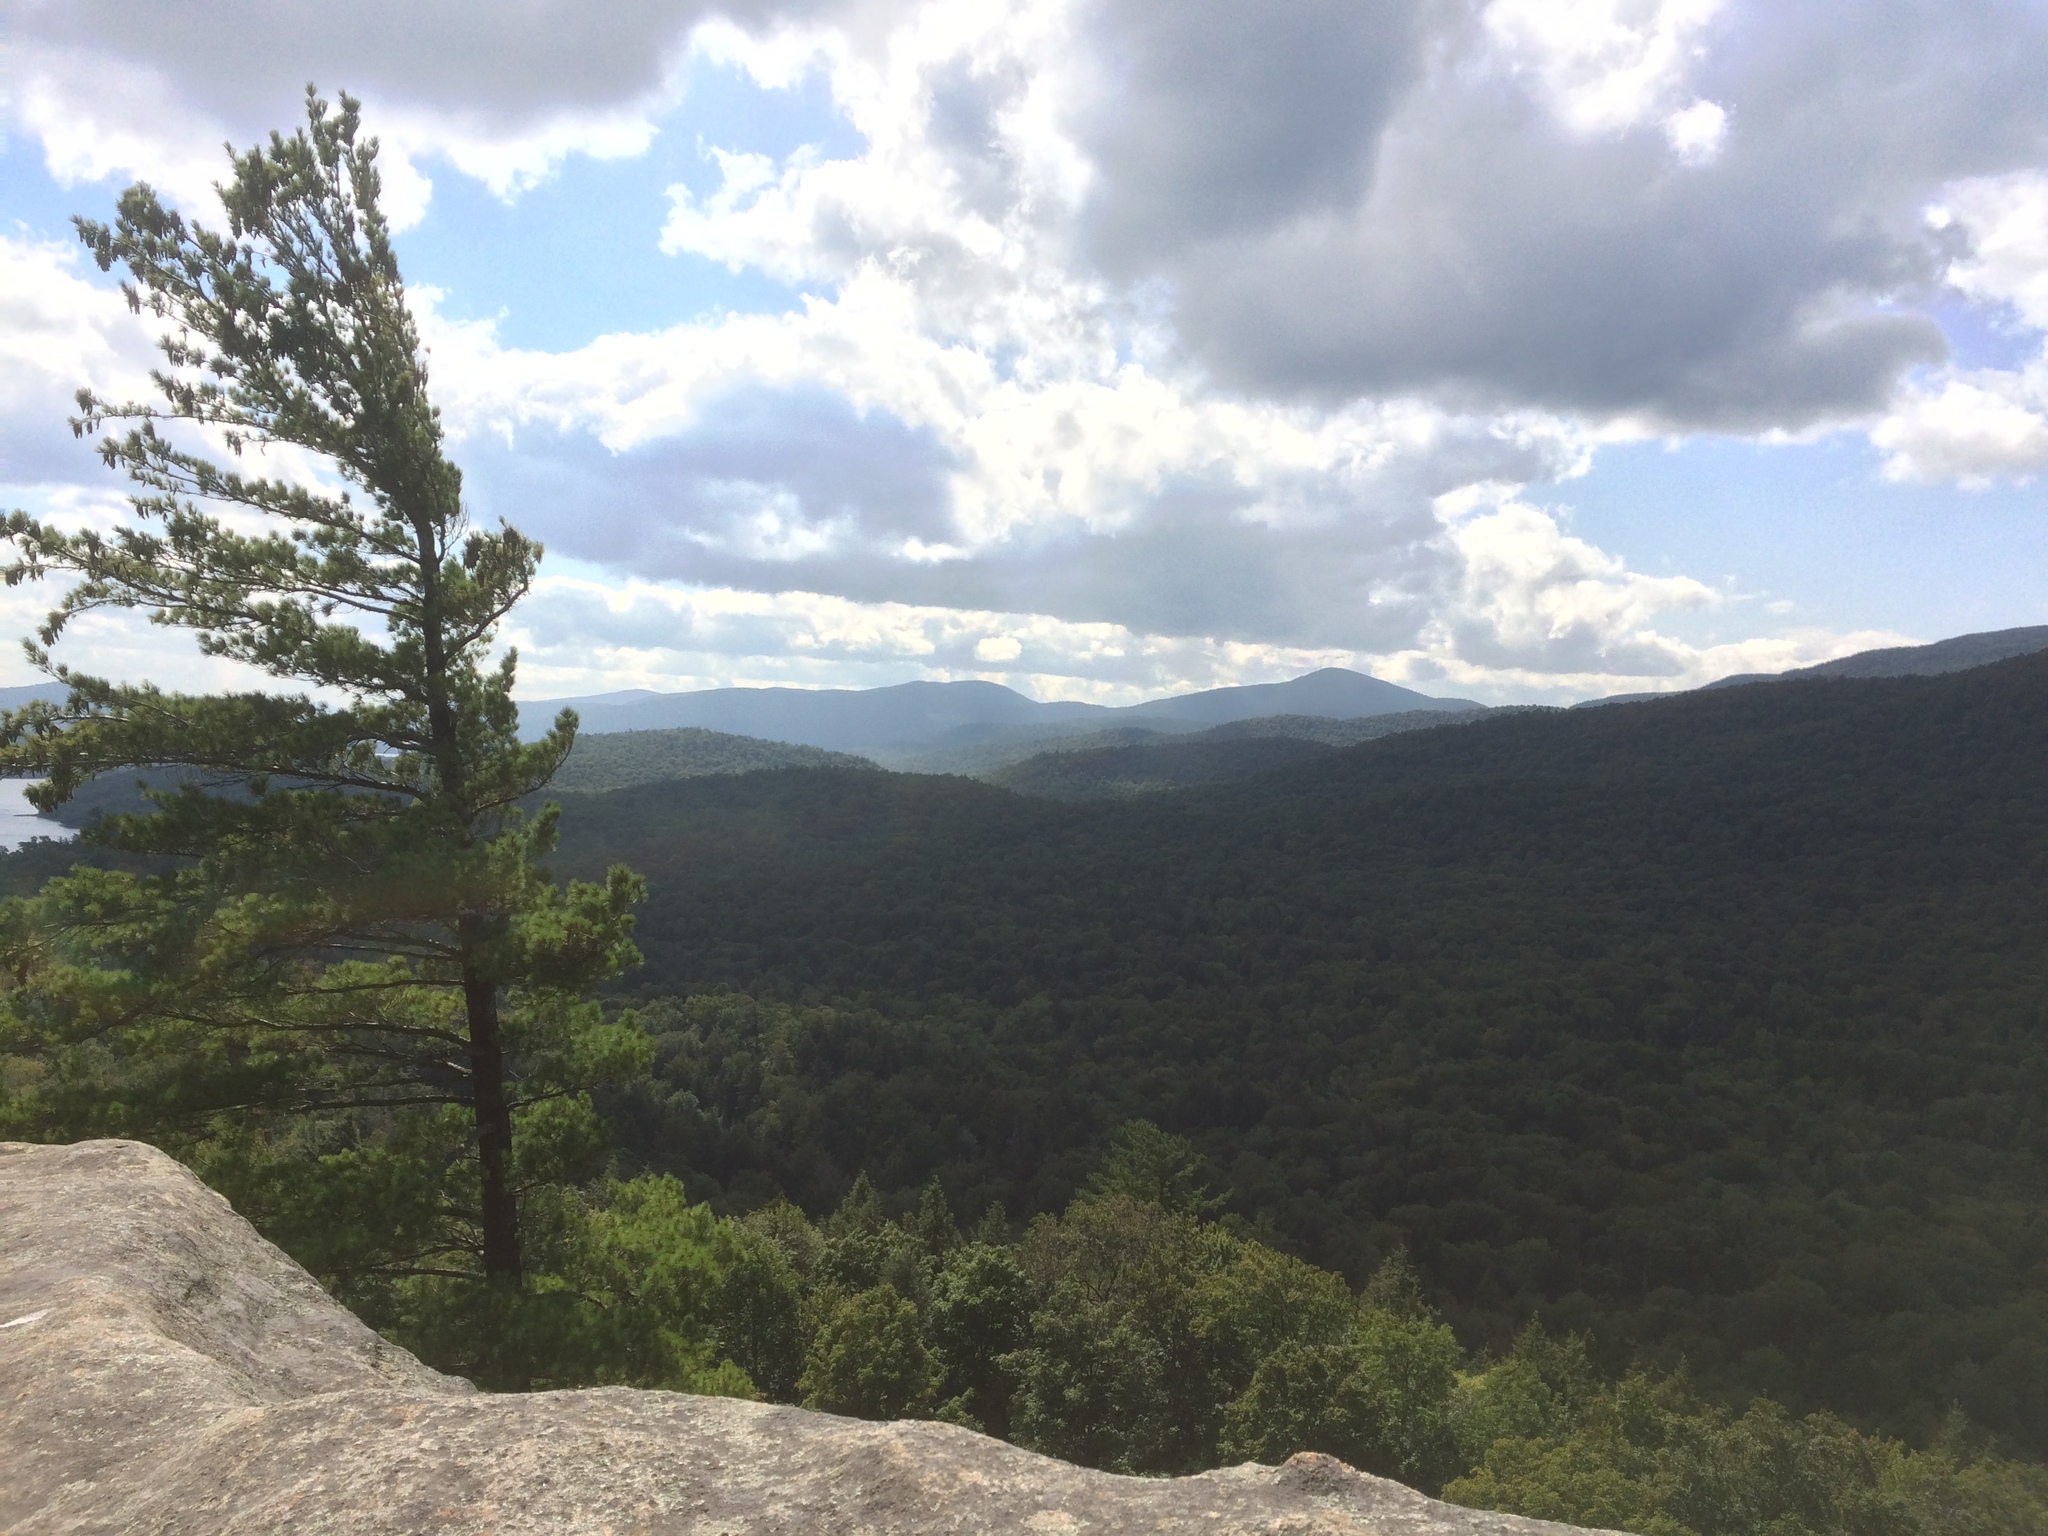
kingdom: Plantae
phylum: Tracheophyta
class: Pinopsida
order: Pinales
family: Pinaceae
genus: Pinus
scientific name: Pinus strobus
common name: Weymouth pine
